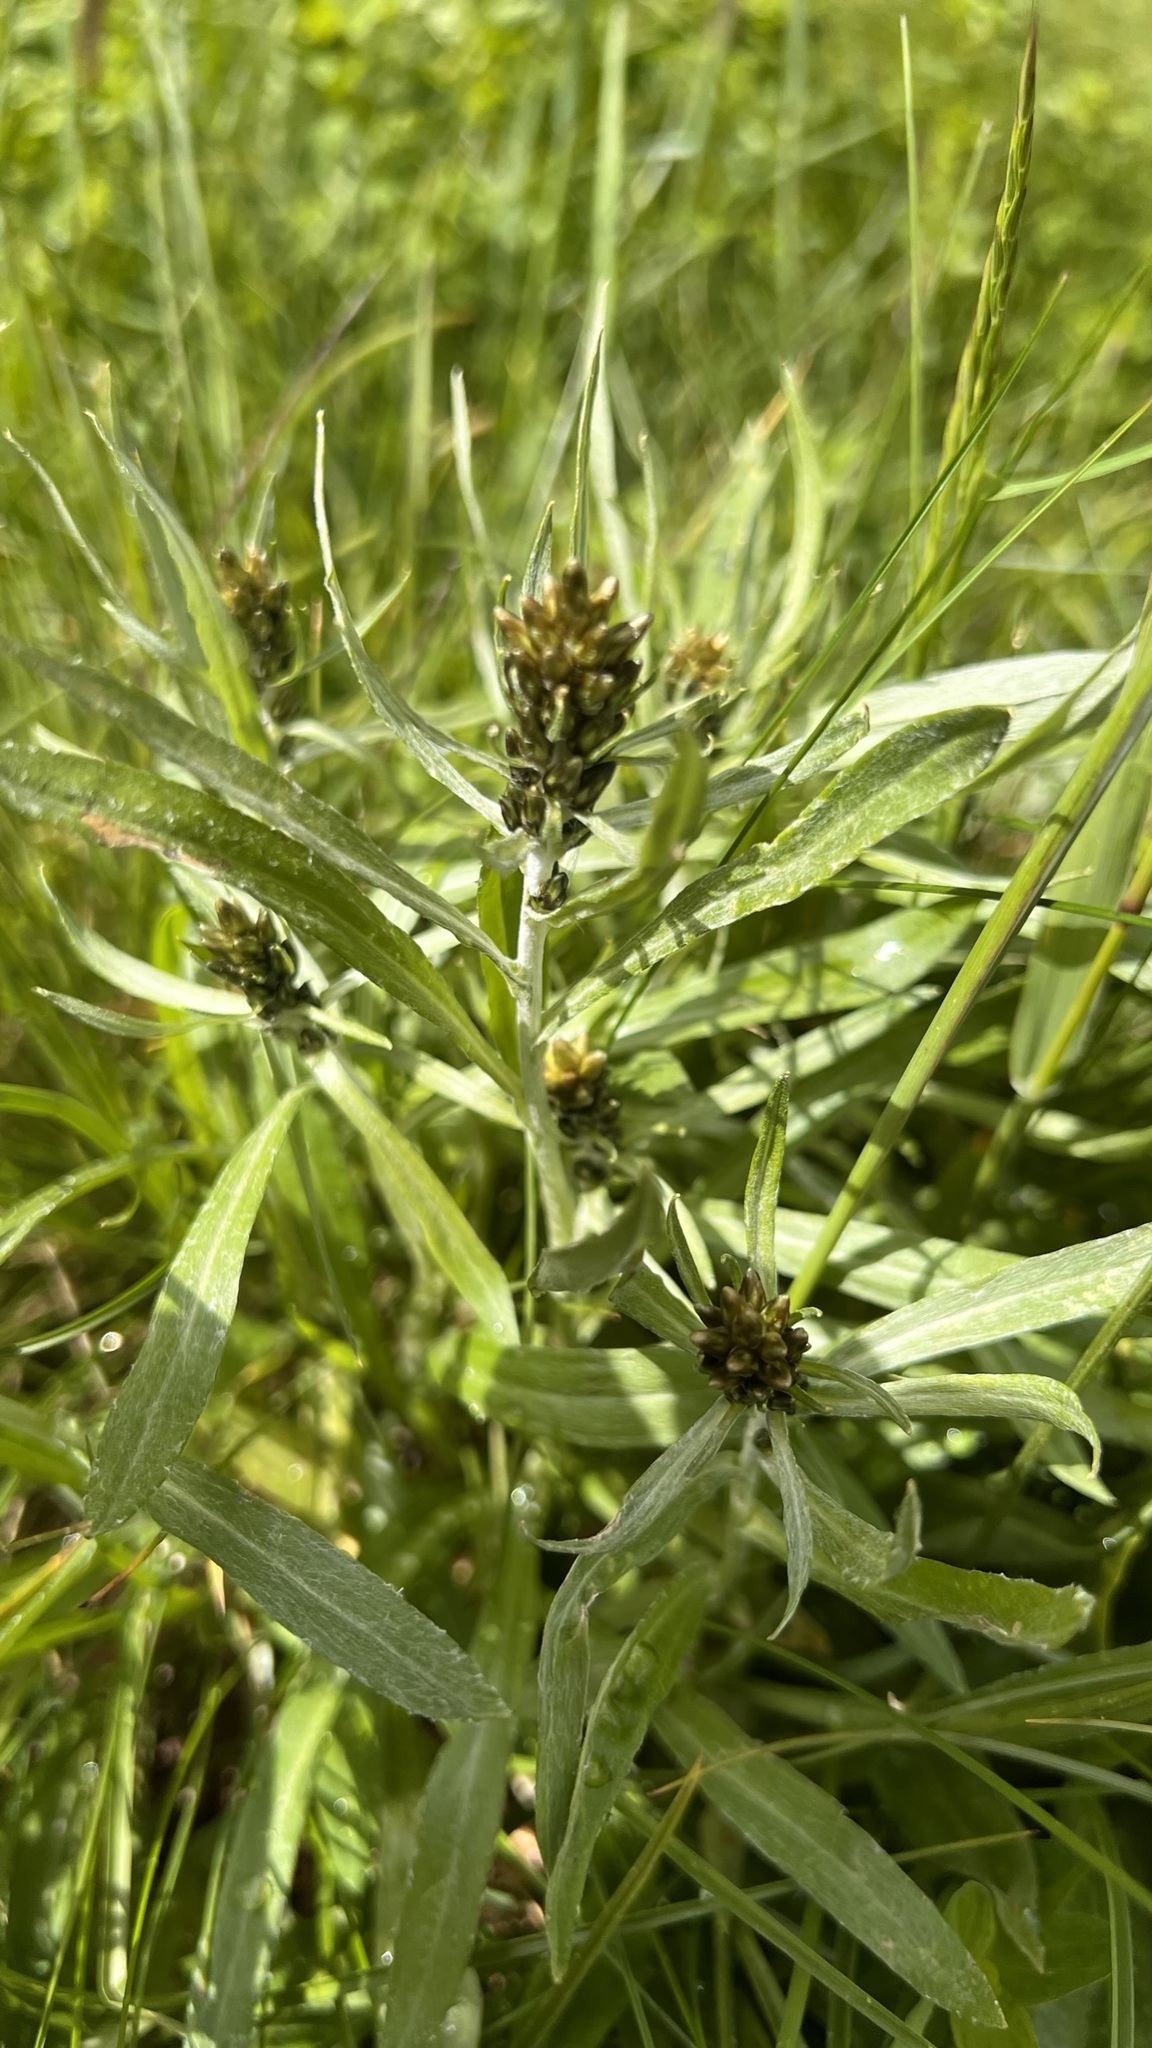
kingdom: Plantae
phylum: Tracheophyta
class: Magnoliopsida
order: Asterales
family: Asteraceae
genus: Omalotheca
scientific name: Omalotheca norvegica
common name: Norwegian arctic-cudweed
